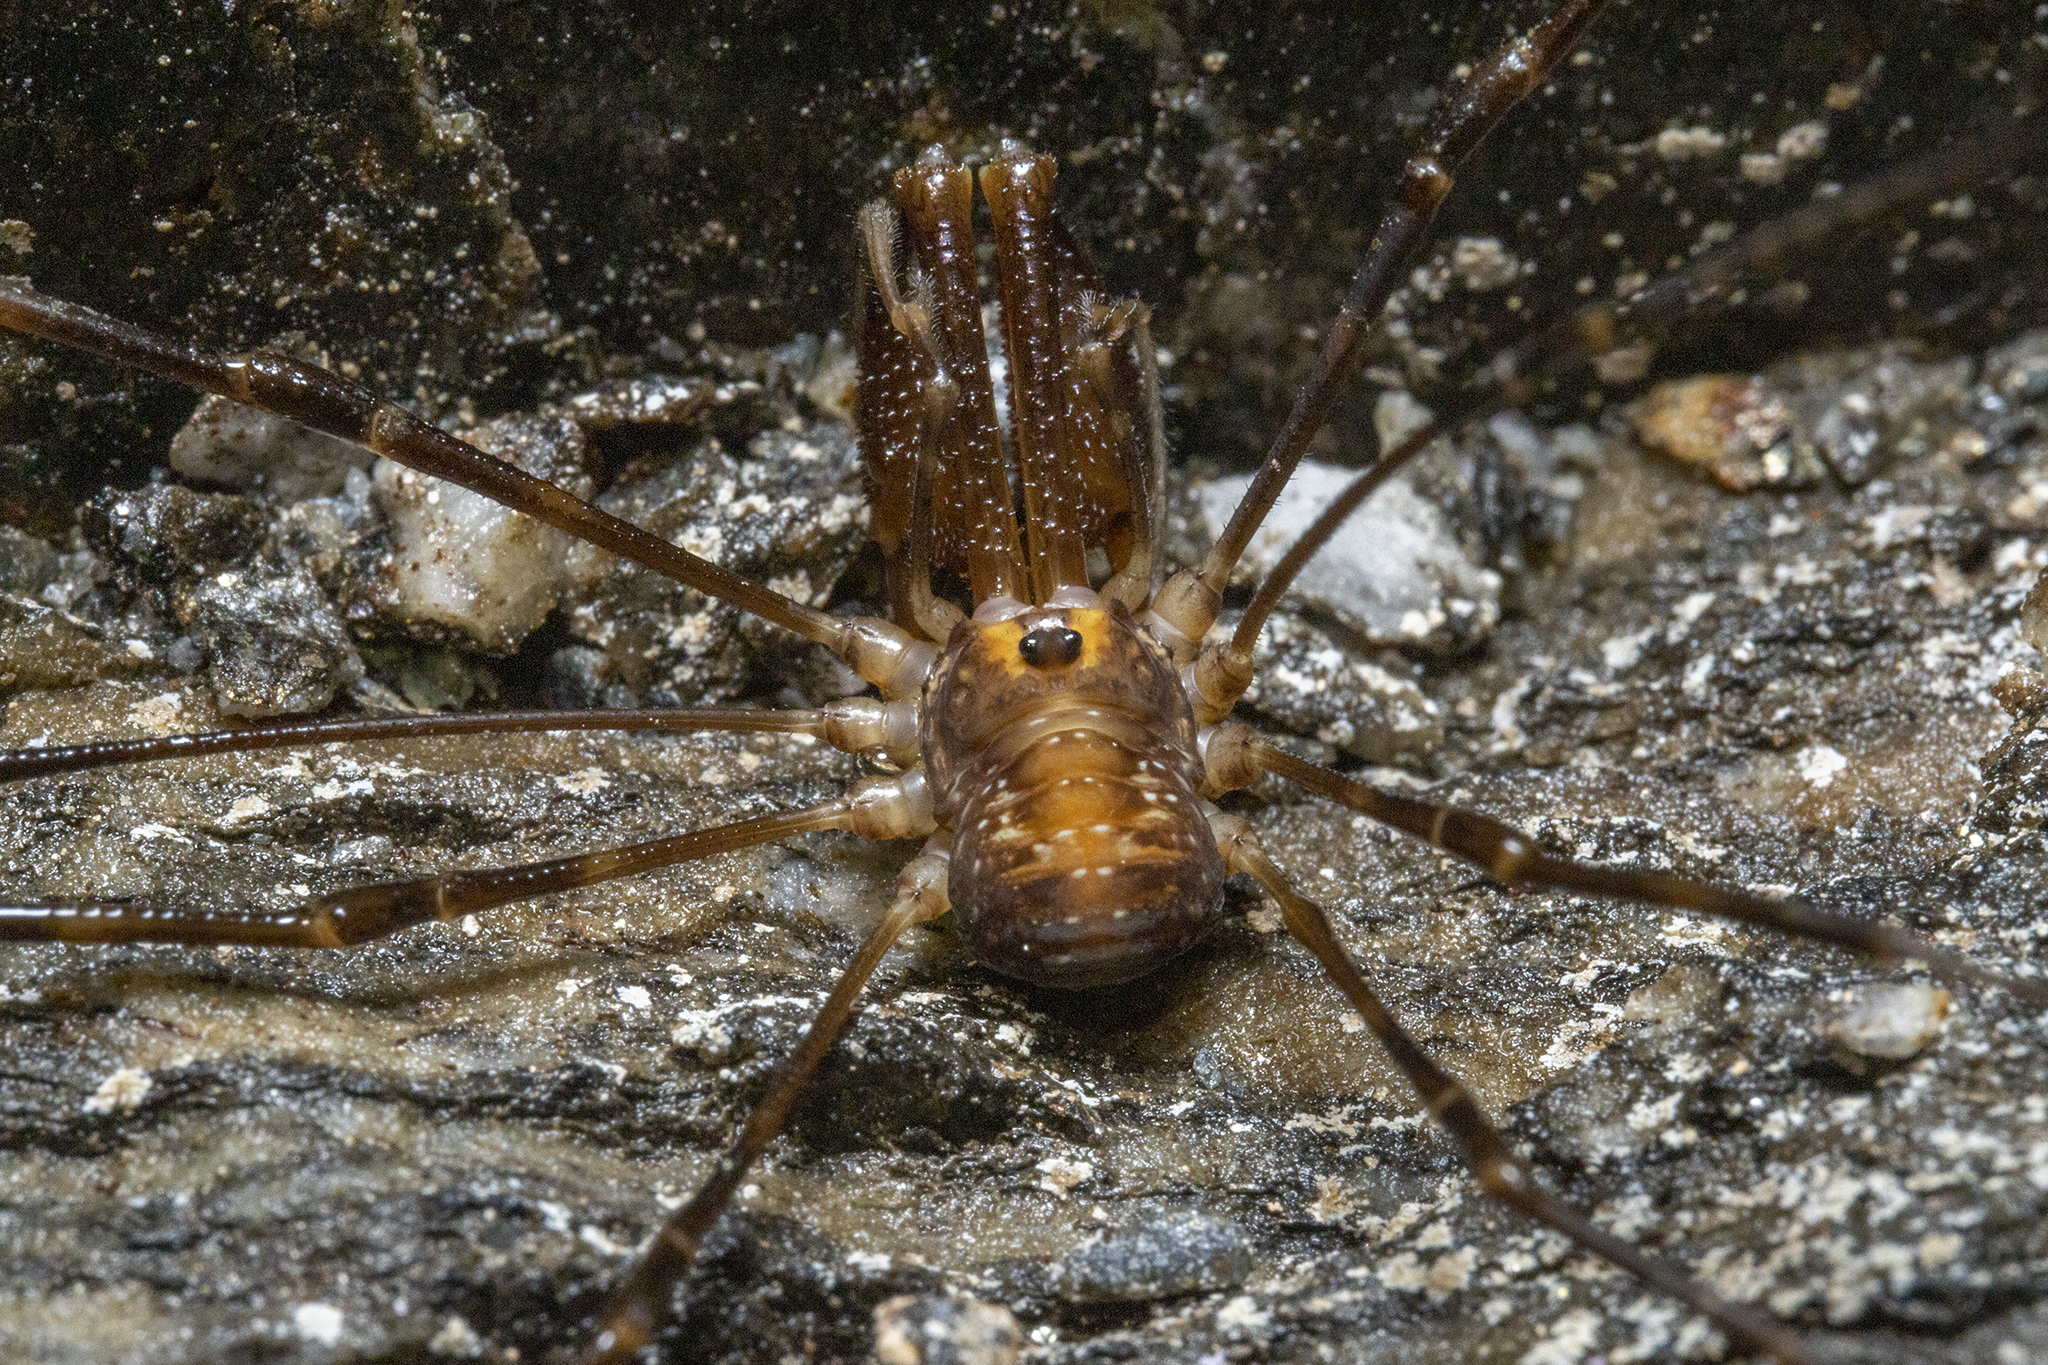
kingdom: Animalia
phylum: Arthropoda
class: Arachnida
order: Opiliones
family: Neopilionidae
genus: Forsteropsalis
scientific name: Forsteropsalis fabulosa
